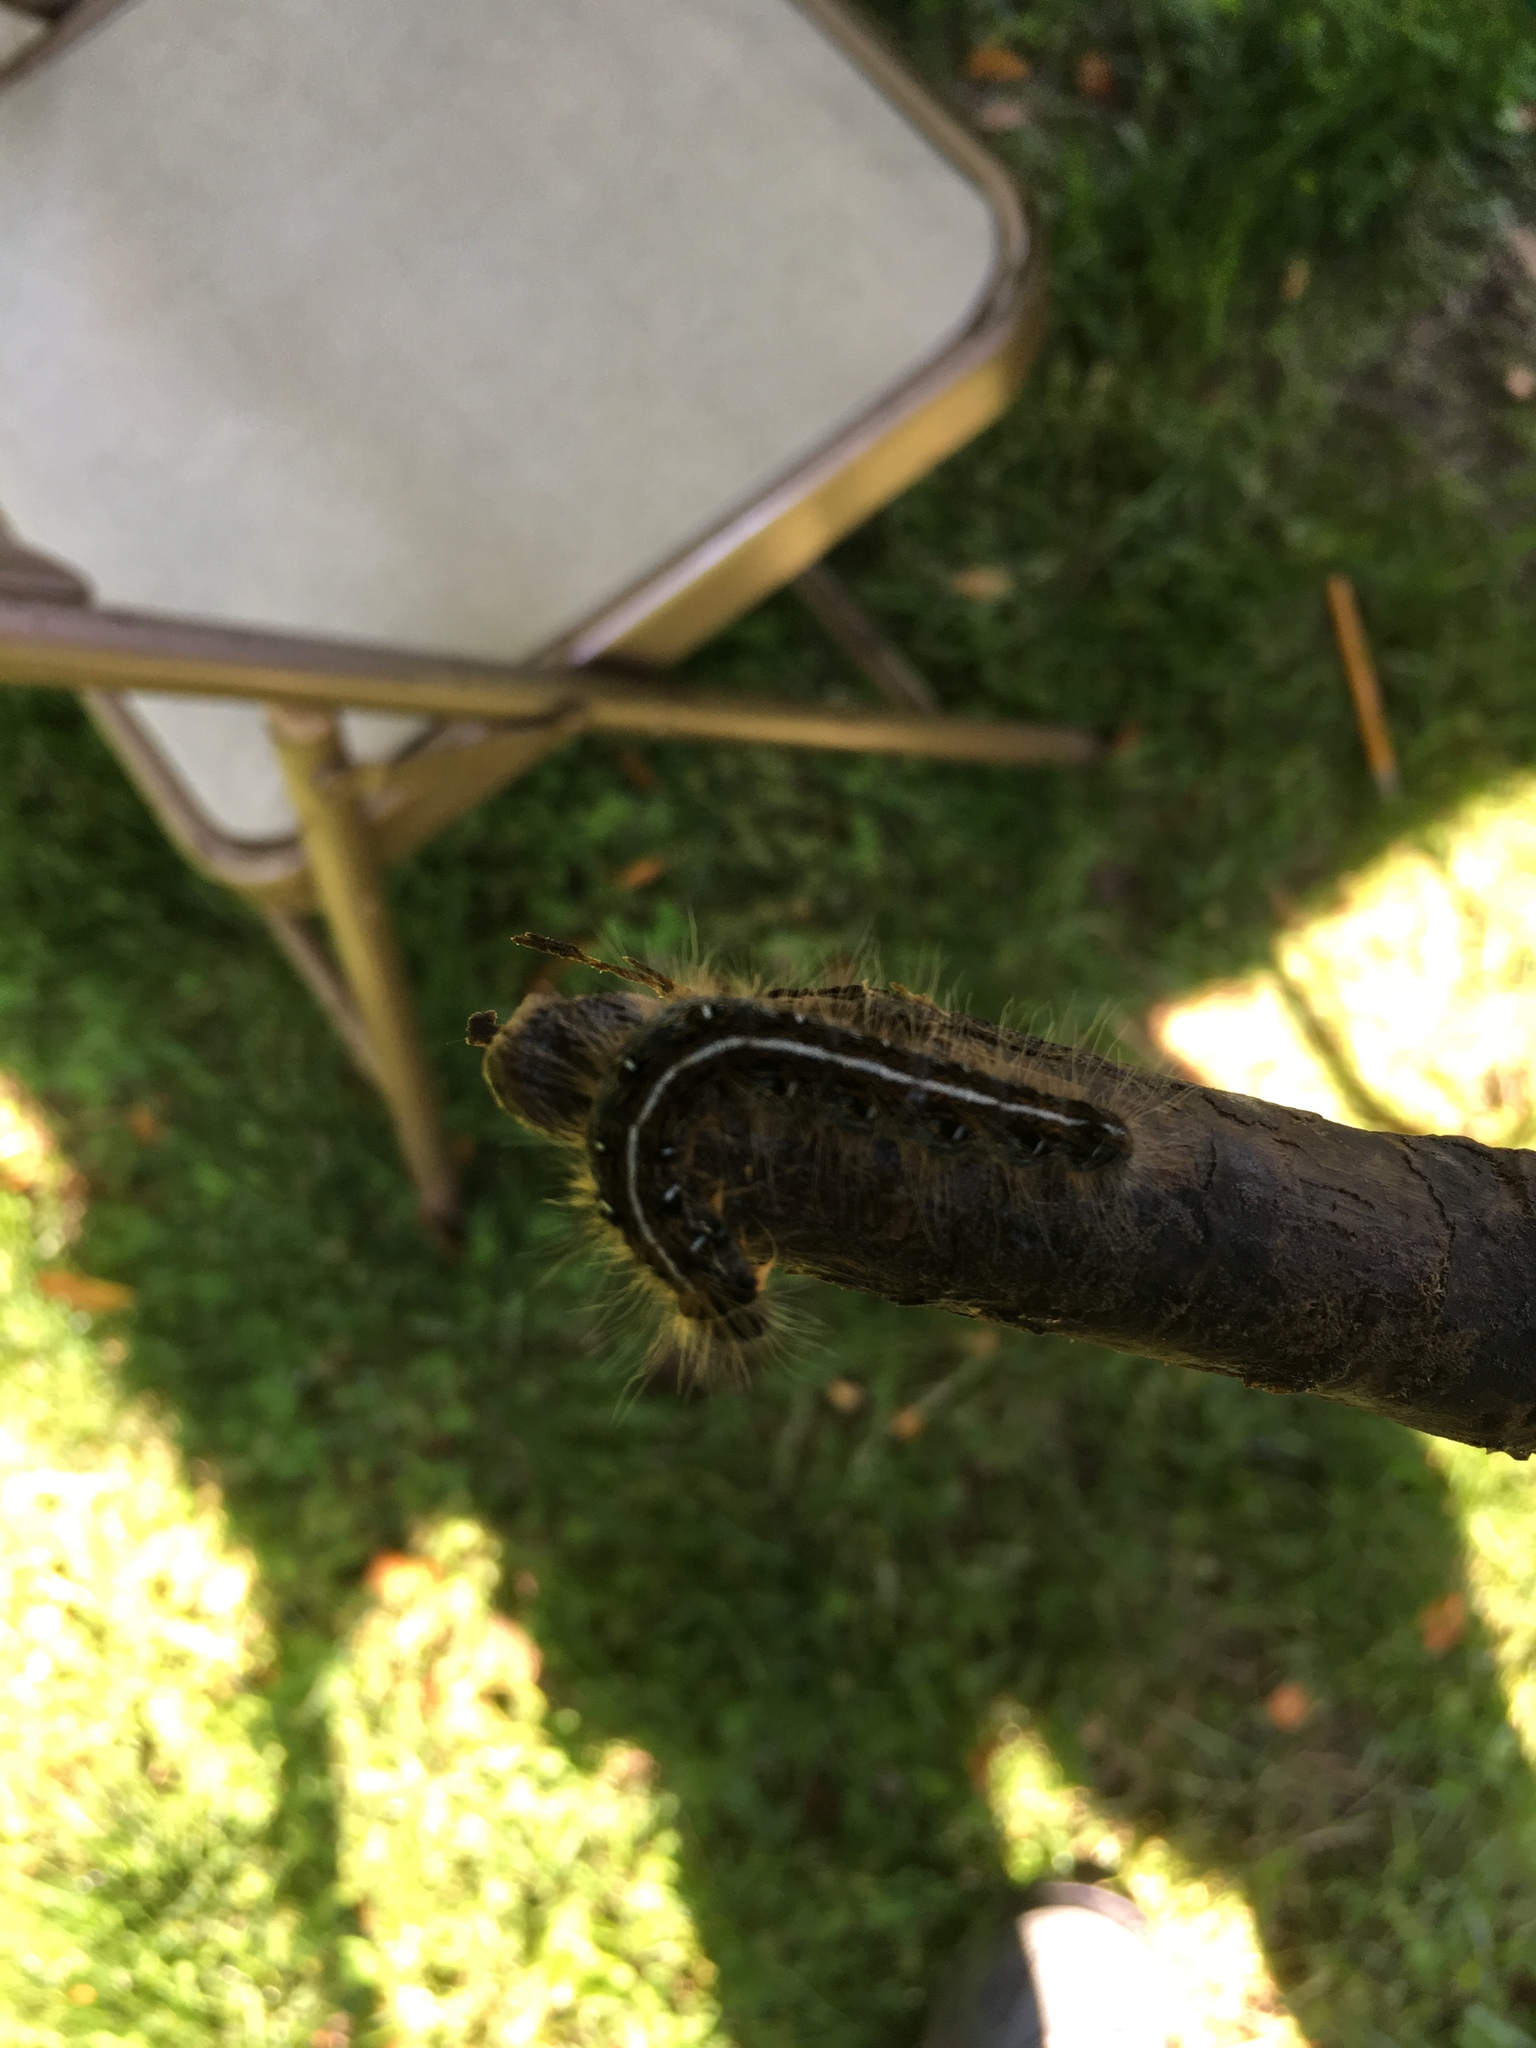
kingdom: Animalia
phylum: Arthropoda
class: Insecta
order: Lepidoptera
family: Lasiocampidae
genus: Malacosoma
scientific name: Malacosoma americana
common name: Eastern tent caterpillar moth
